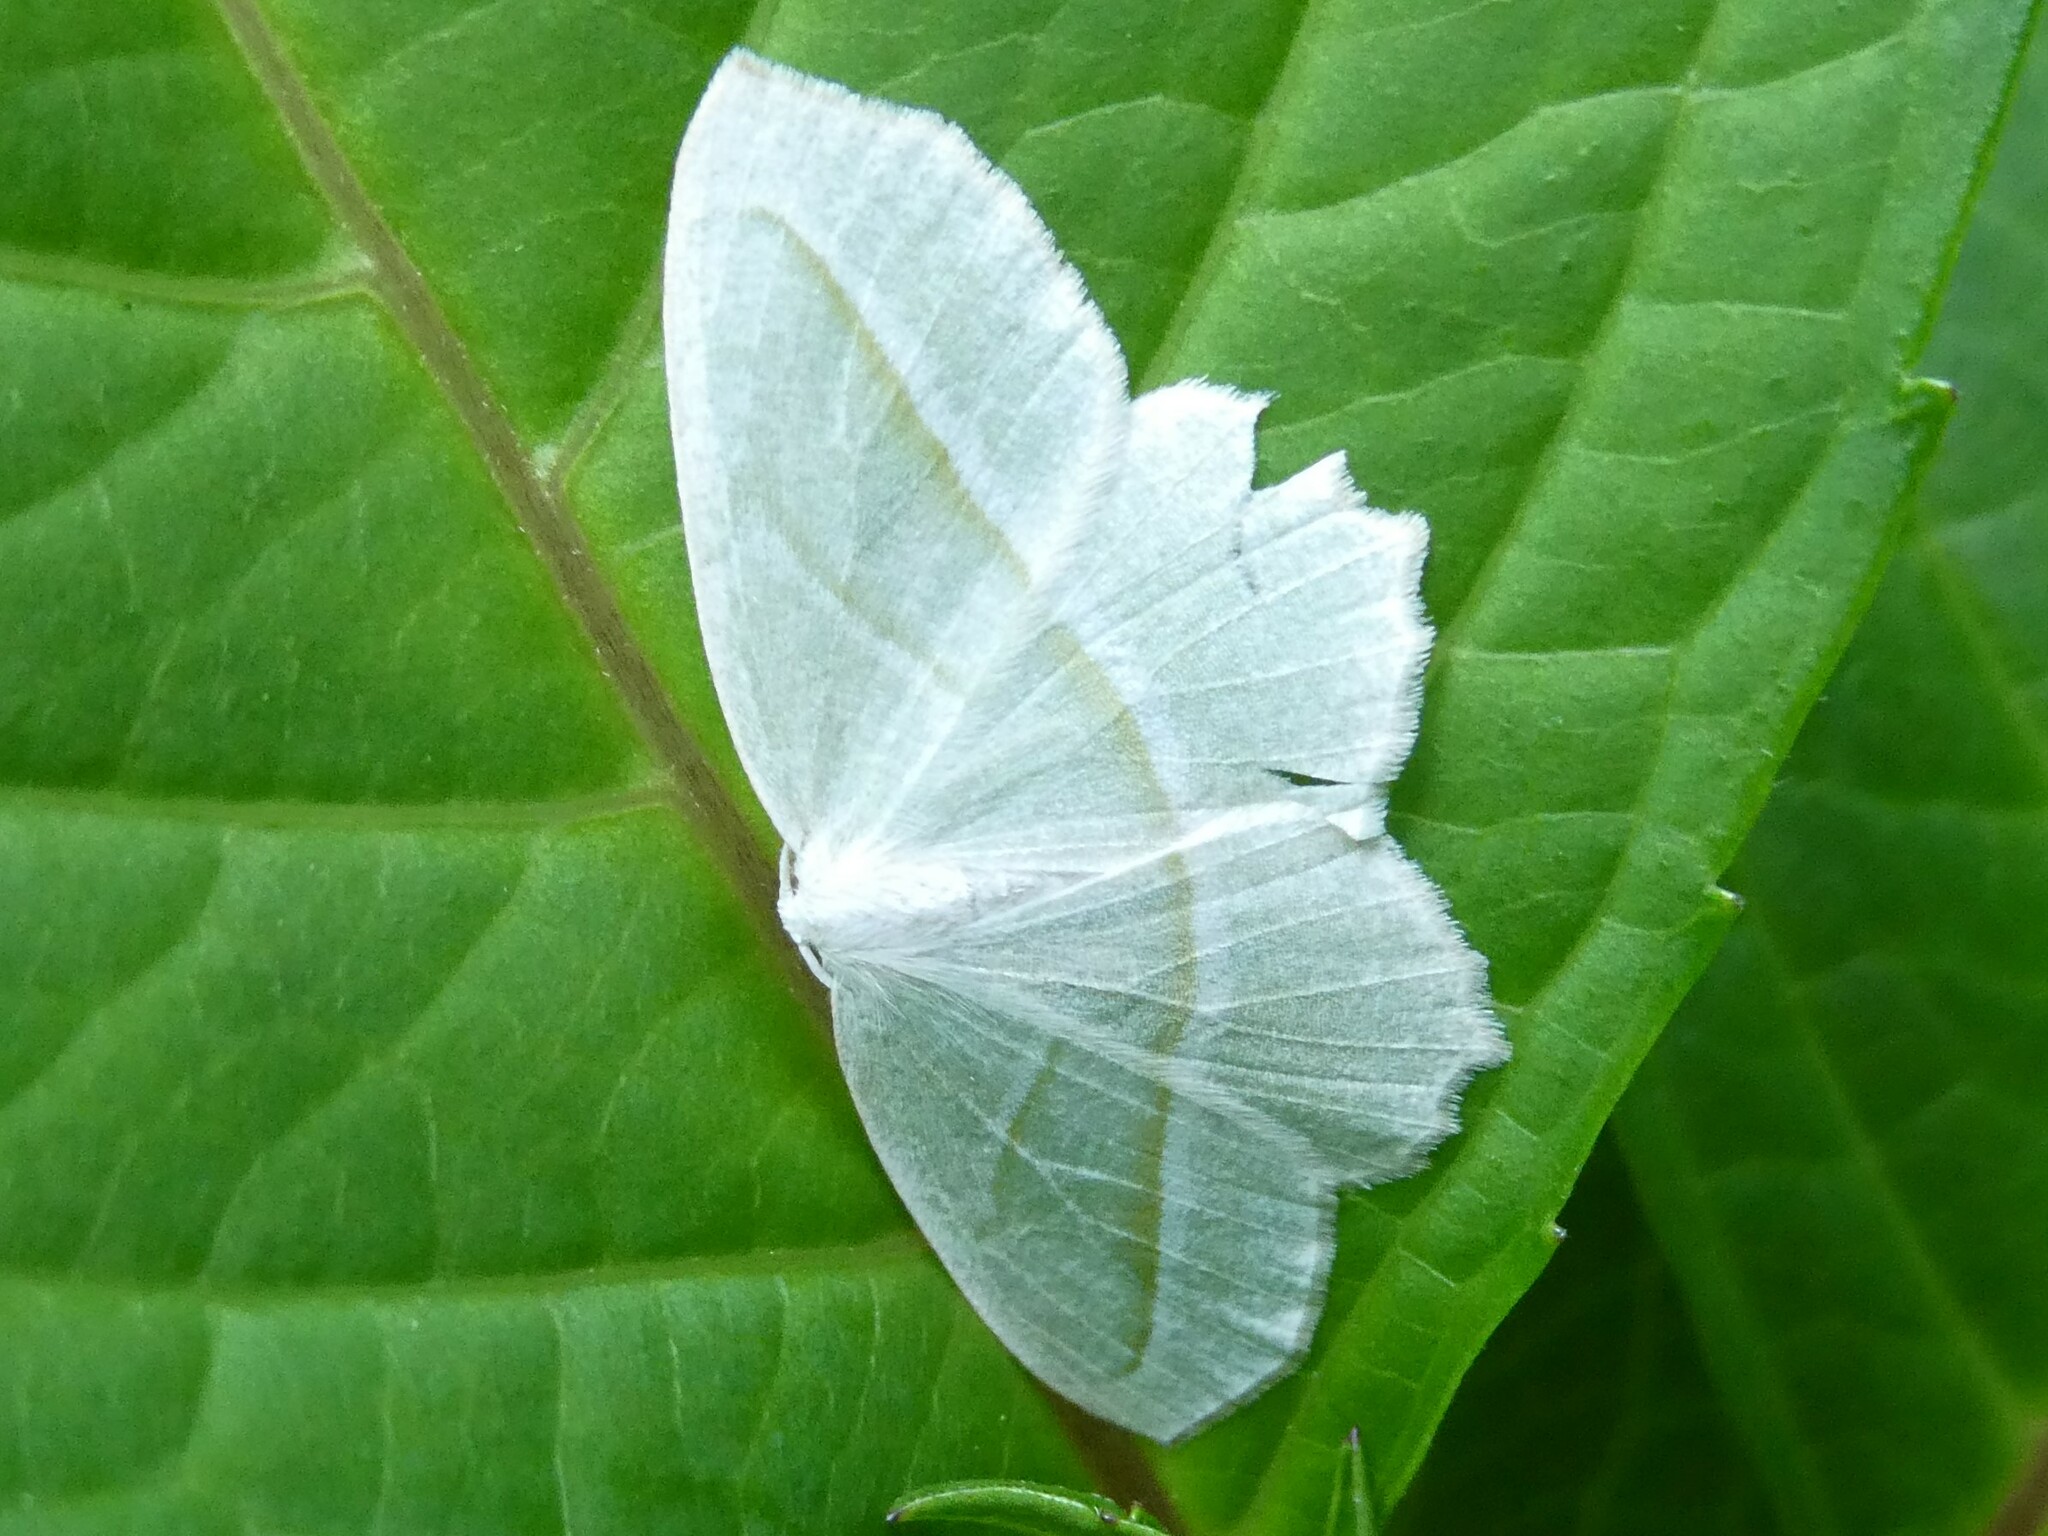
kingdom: Animalia
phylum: Arthropoda
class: Insecta
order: Lepidoptera
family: Geometridae
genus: Campaea
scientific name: Campaea perlata
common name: Fringed looper
